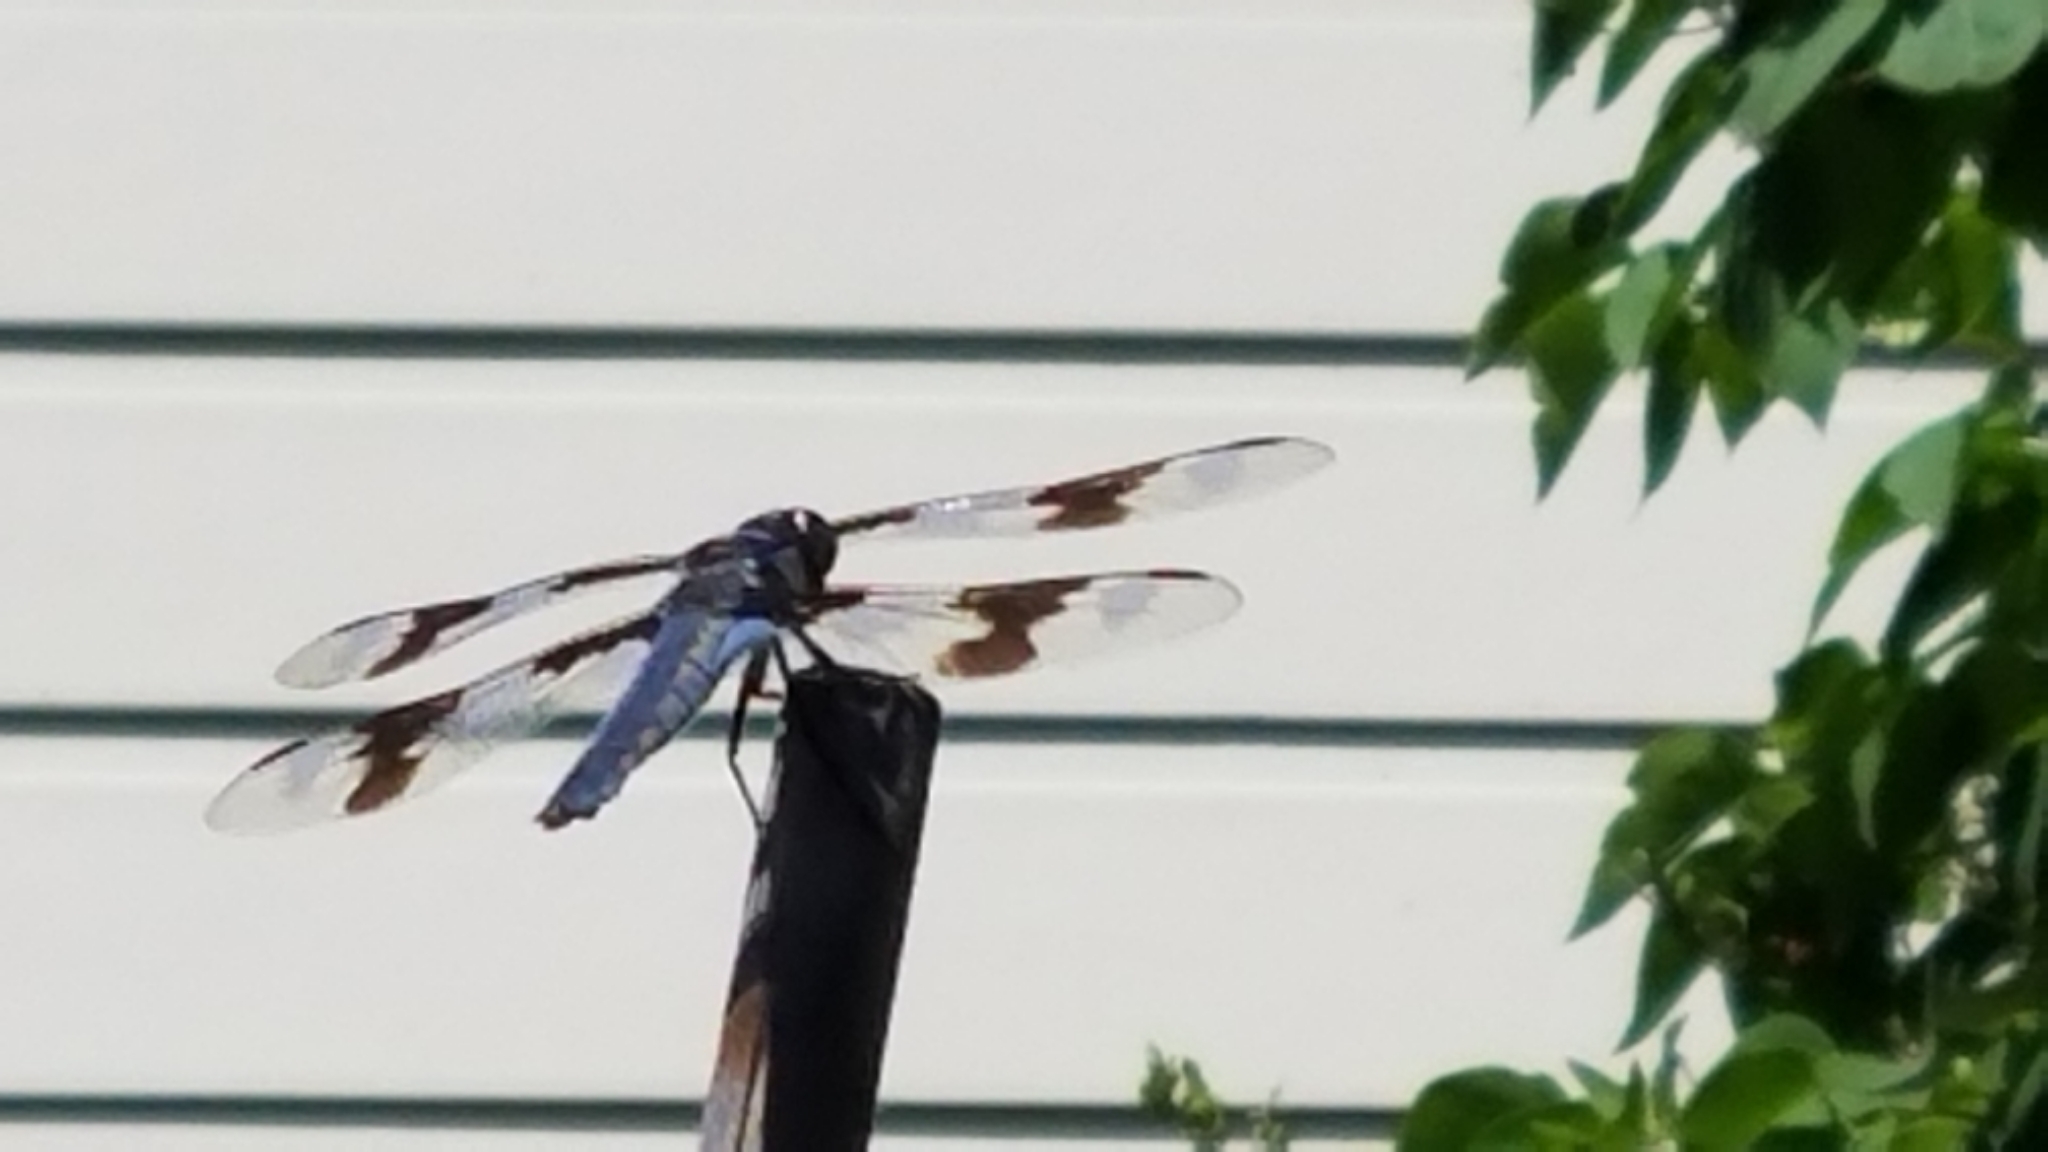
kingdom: Animalia
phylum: Arthropoda
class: Insecta
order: Odonata
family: Libellulidae
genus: Libellula
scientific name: Libellula forensis
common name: Eight-spotted skimmer
